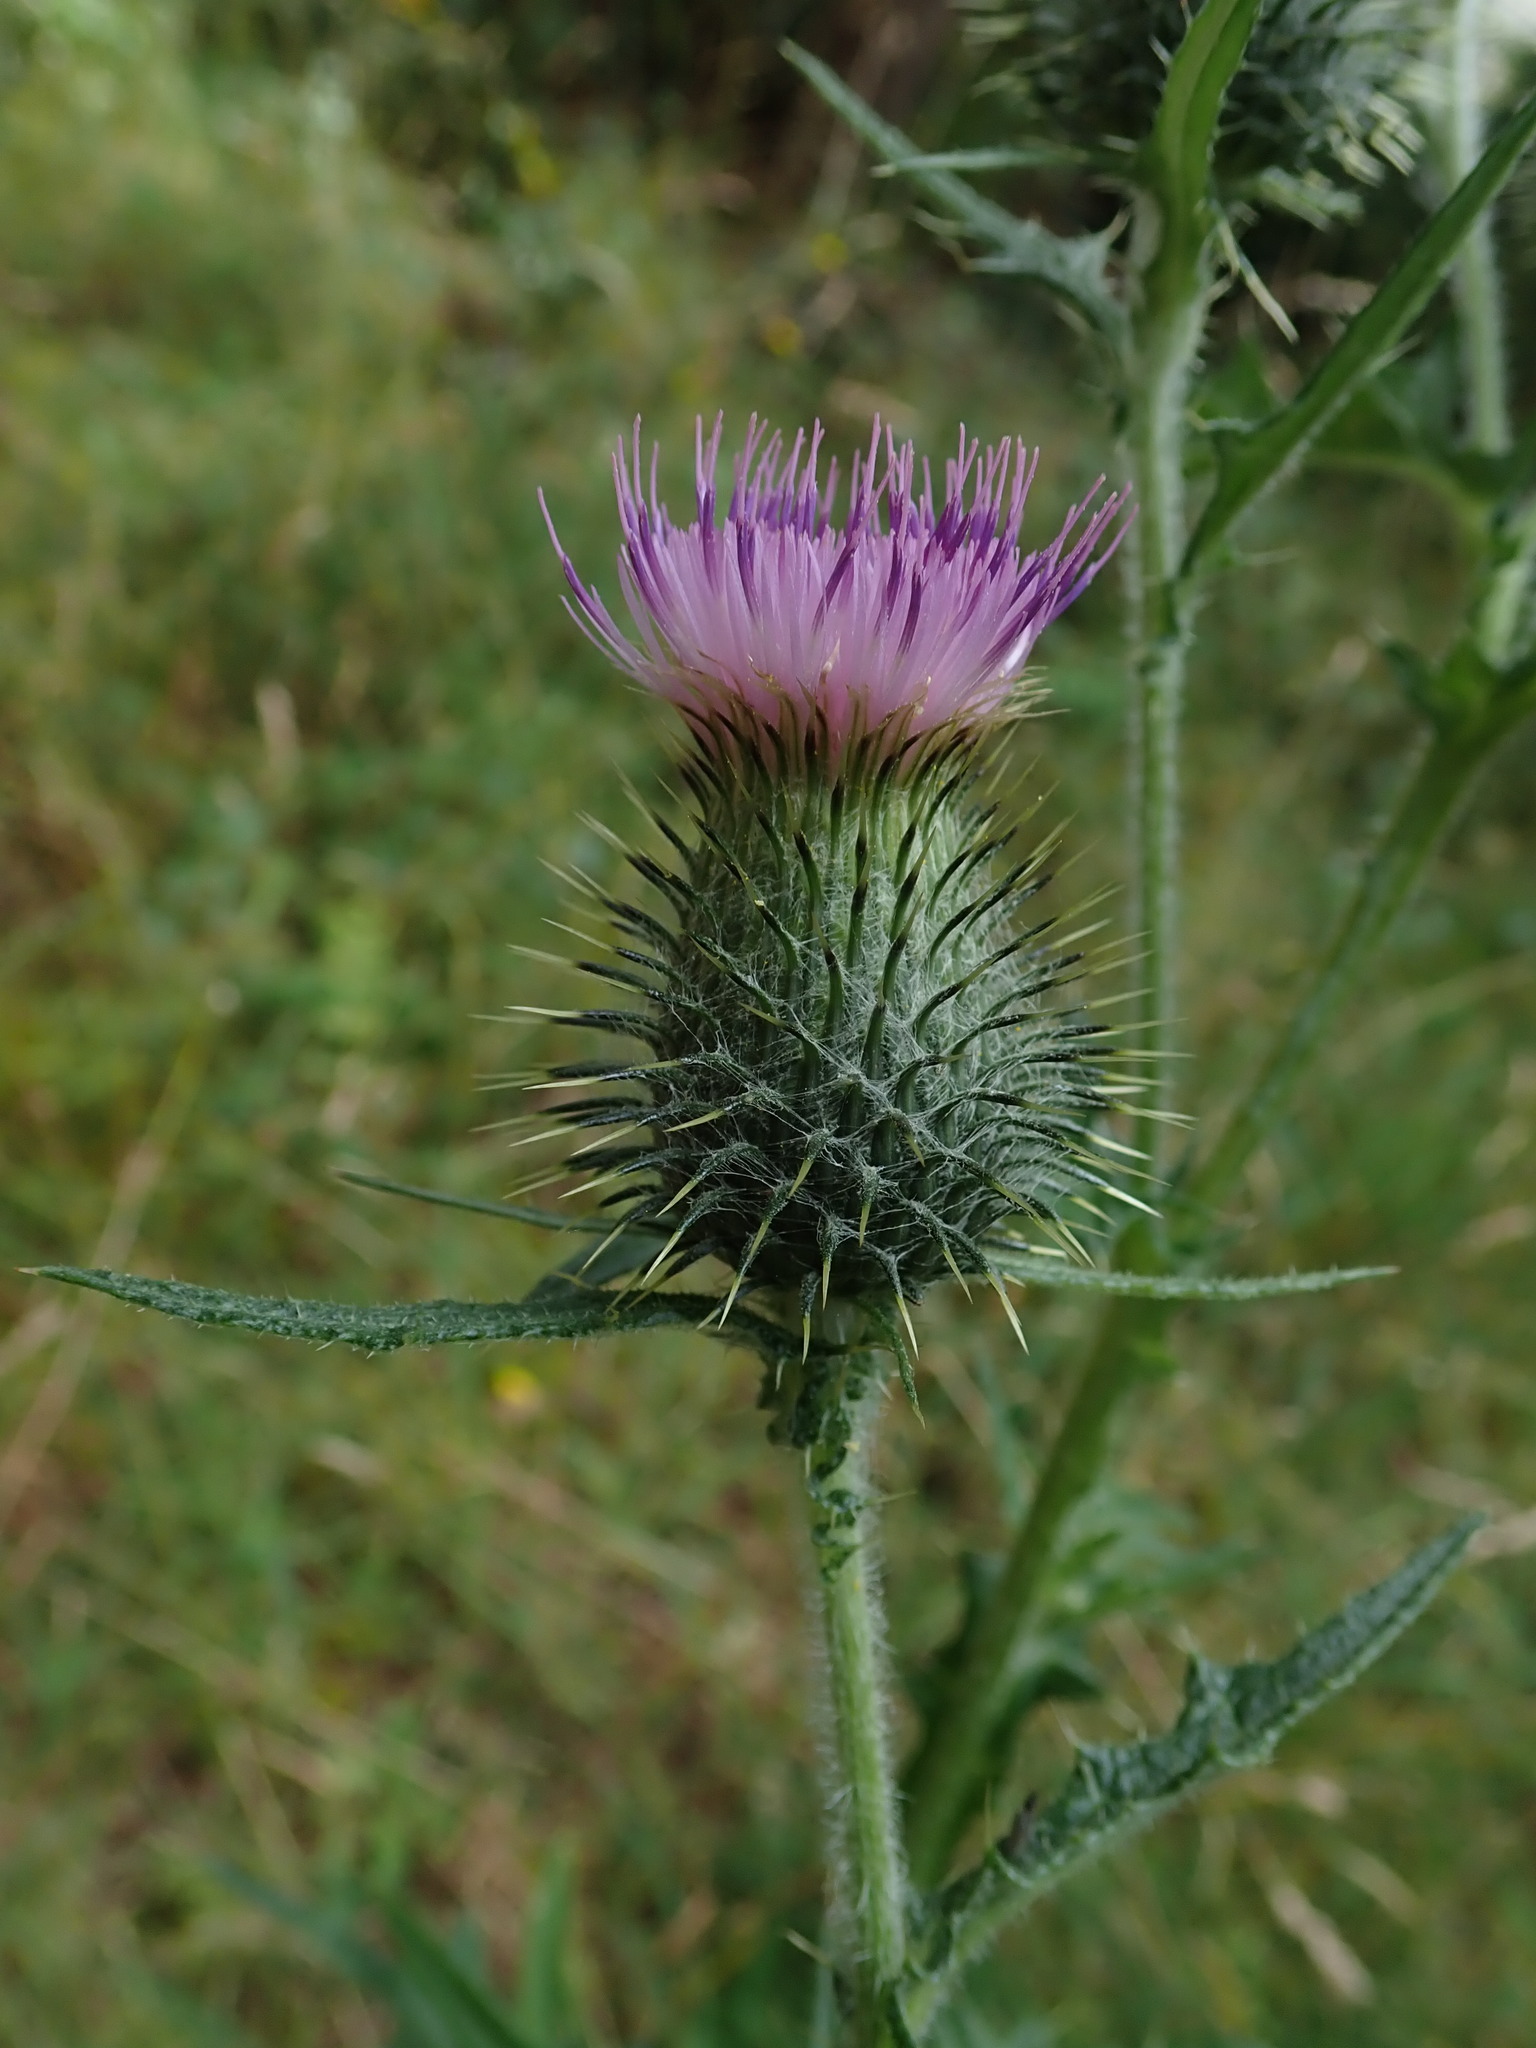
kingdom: Plantae
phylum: Tracheophyta
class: Magnoliopsida
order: Asterales
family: Asteraceae
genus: Cirsium
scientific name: Cirsium vulgare
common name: Bull thistle
